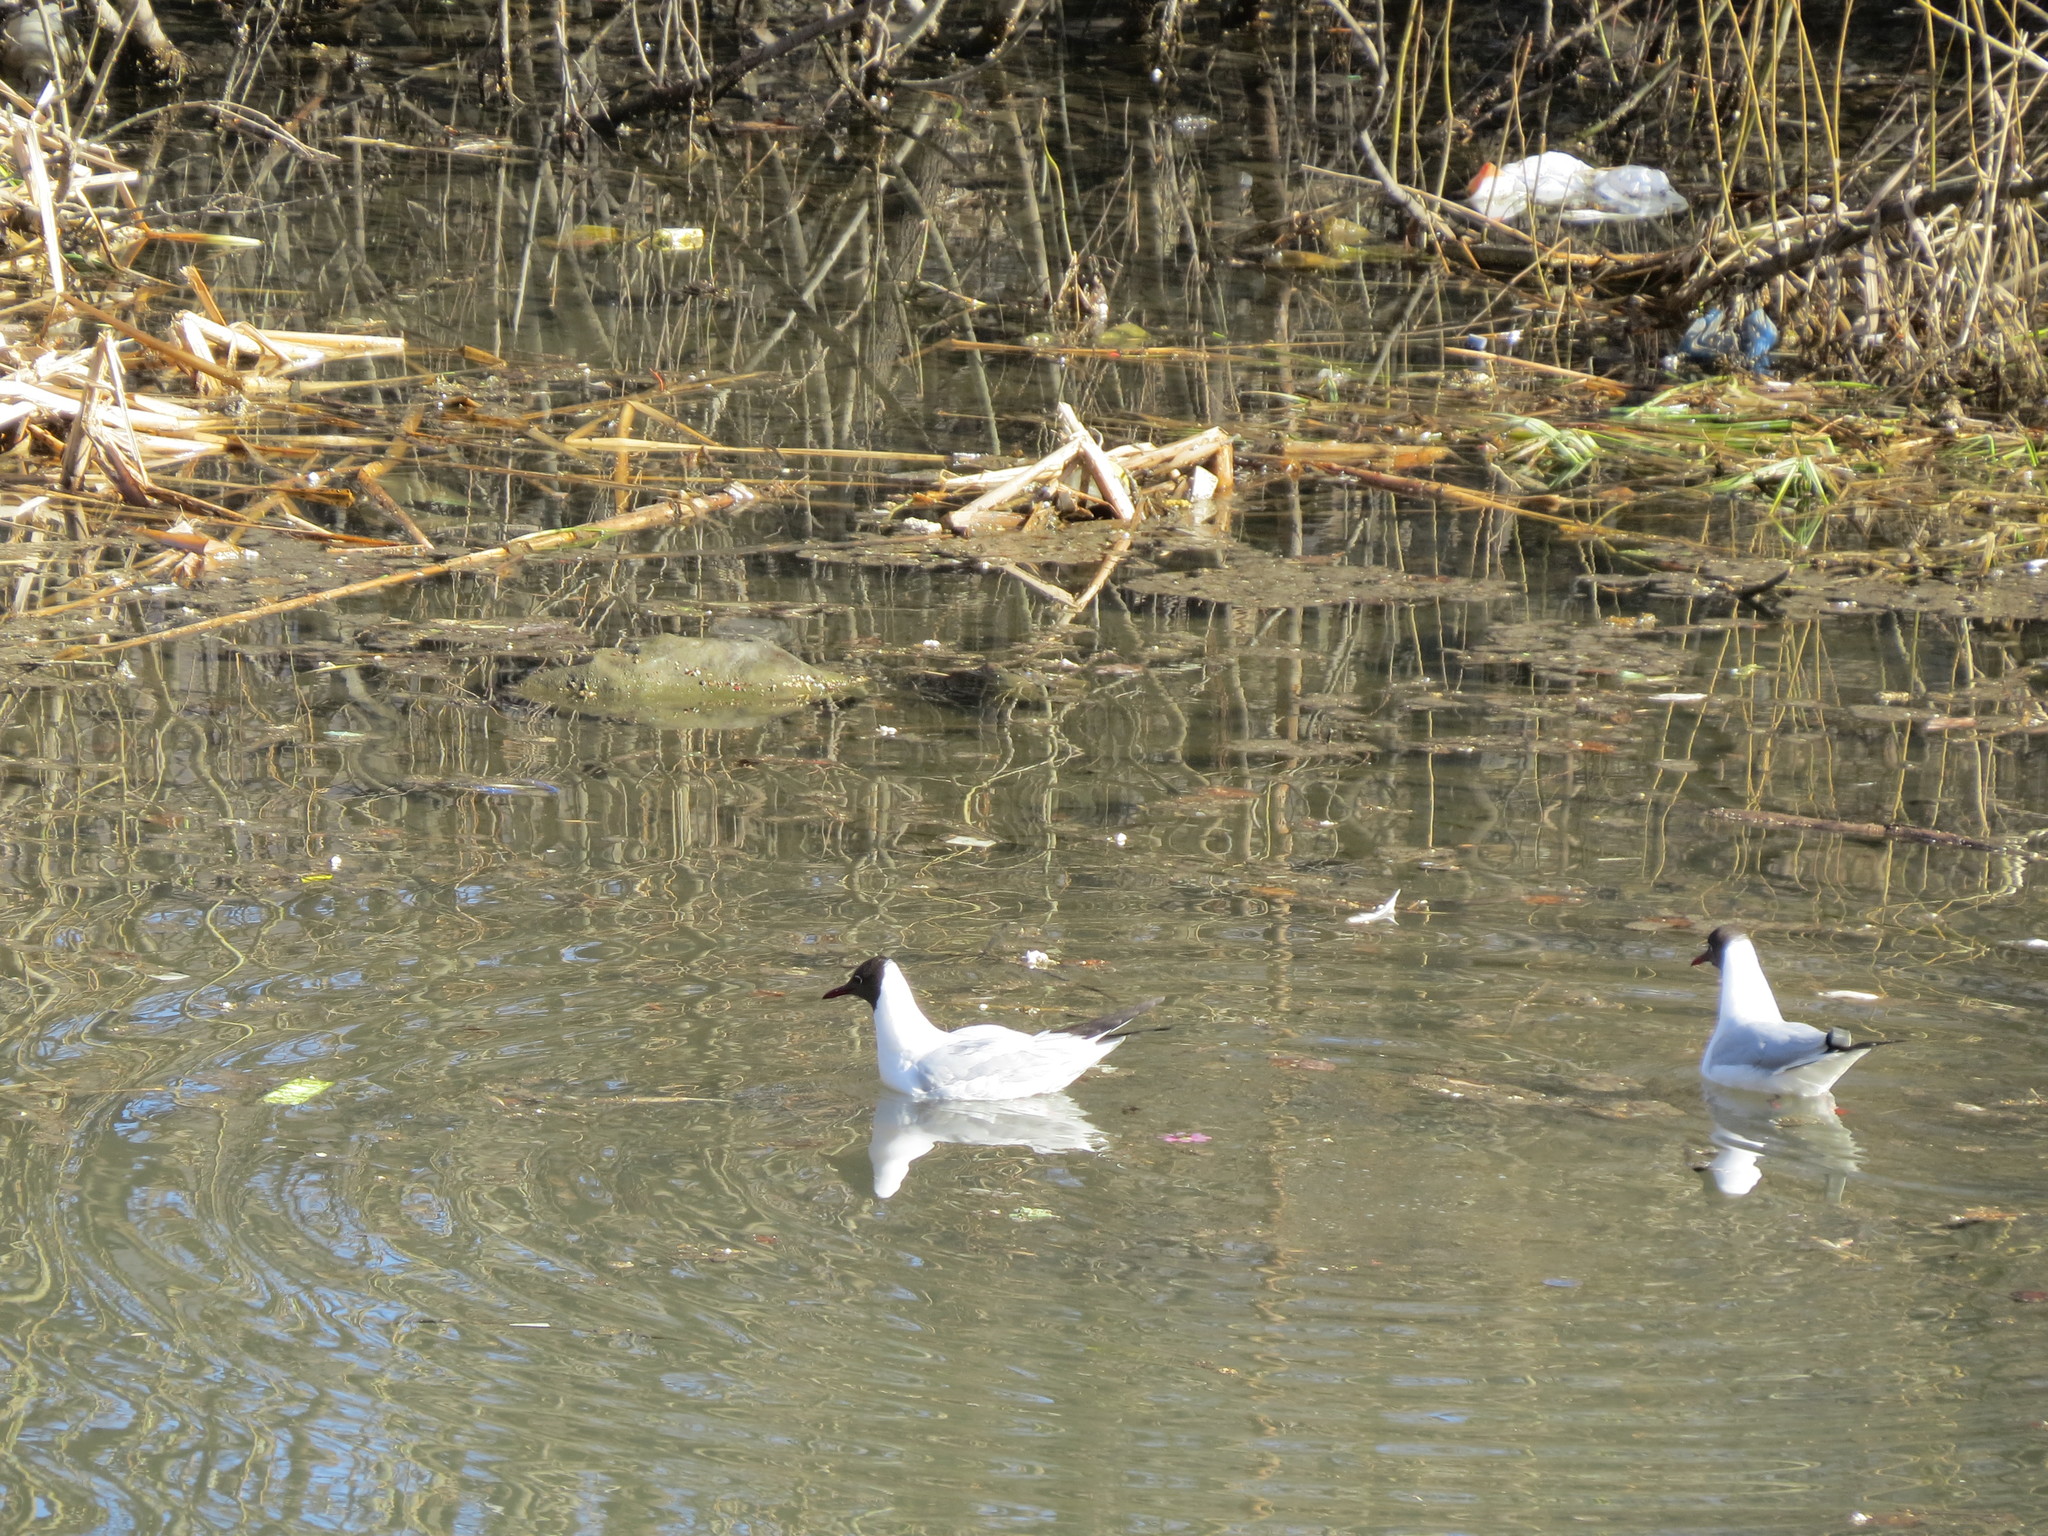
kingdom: Animalia
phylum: Chordata
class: Aves
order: Charadriiformes
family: Laridae
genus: Chroicocephalus
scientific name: Chroicocephalus ridibundus
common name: Black-headed gull
